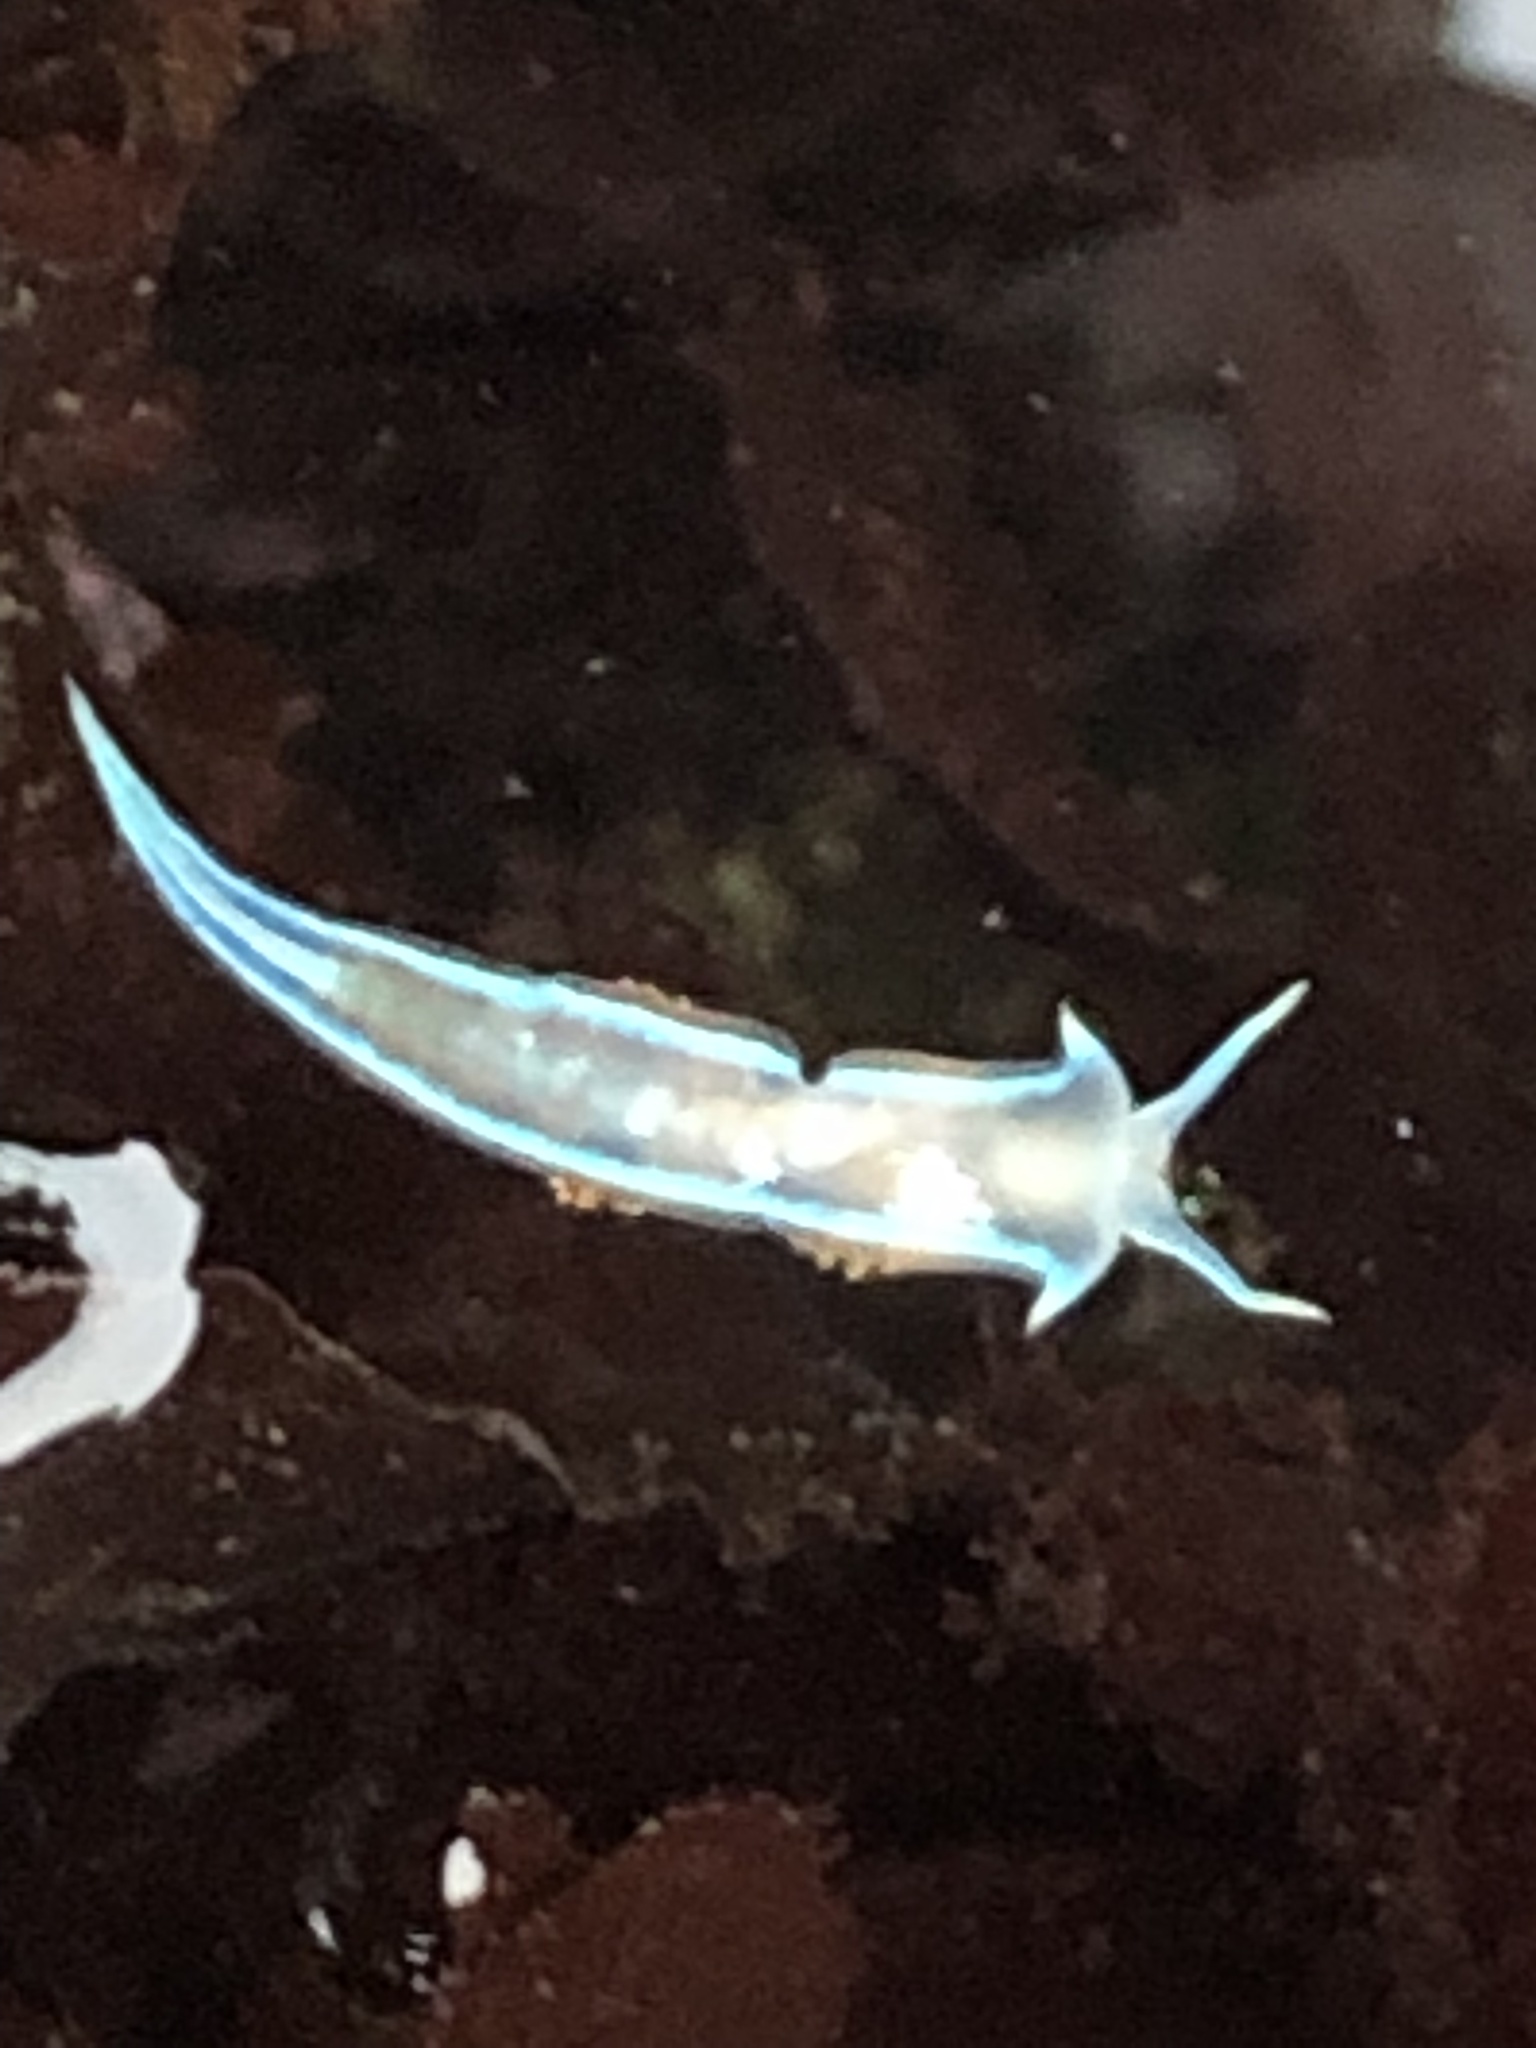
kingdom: Animalia
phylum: Mollusca
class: Gastropoda
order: Nudibranchia
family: Myrrhinidae
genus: Hermissenda
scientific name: Hermissenda opalescens
